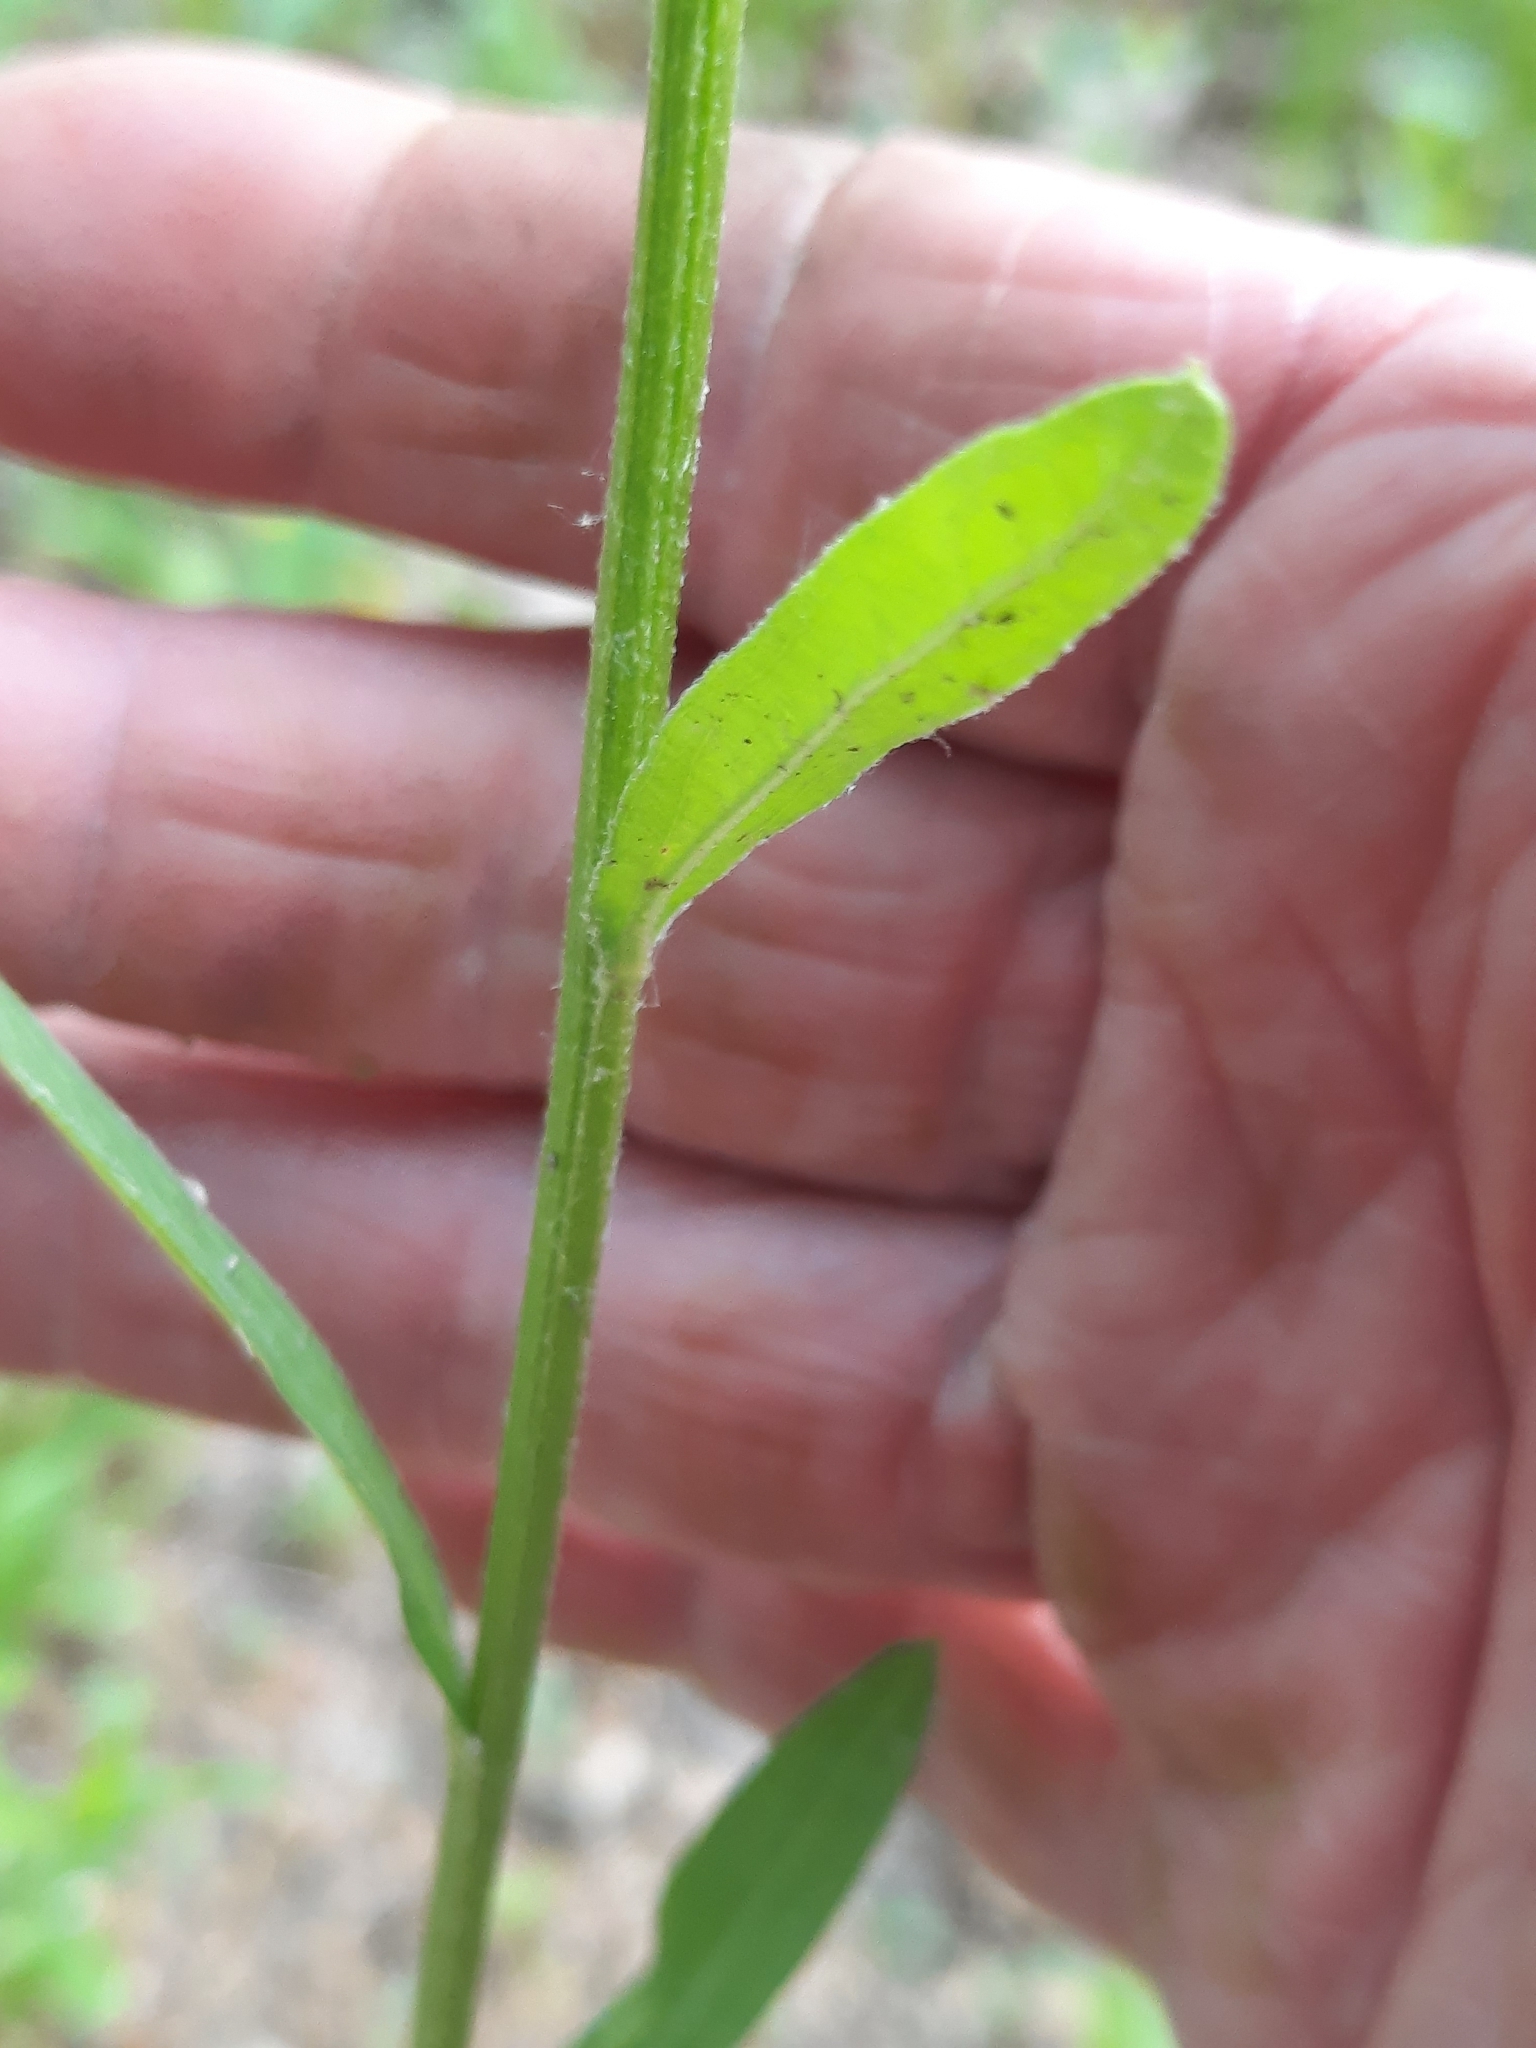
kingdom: Plantae
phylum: Tracheophyta
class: Magnoliopsida
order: Asterales
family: Asteraceae
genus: Erigeron
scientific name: Erigeron strigosus
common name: Common eastern fleabane
